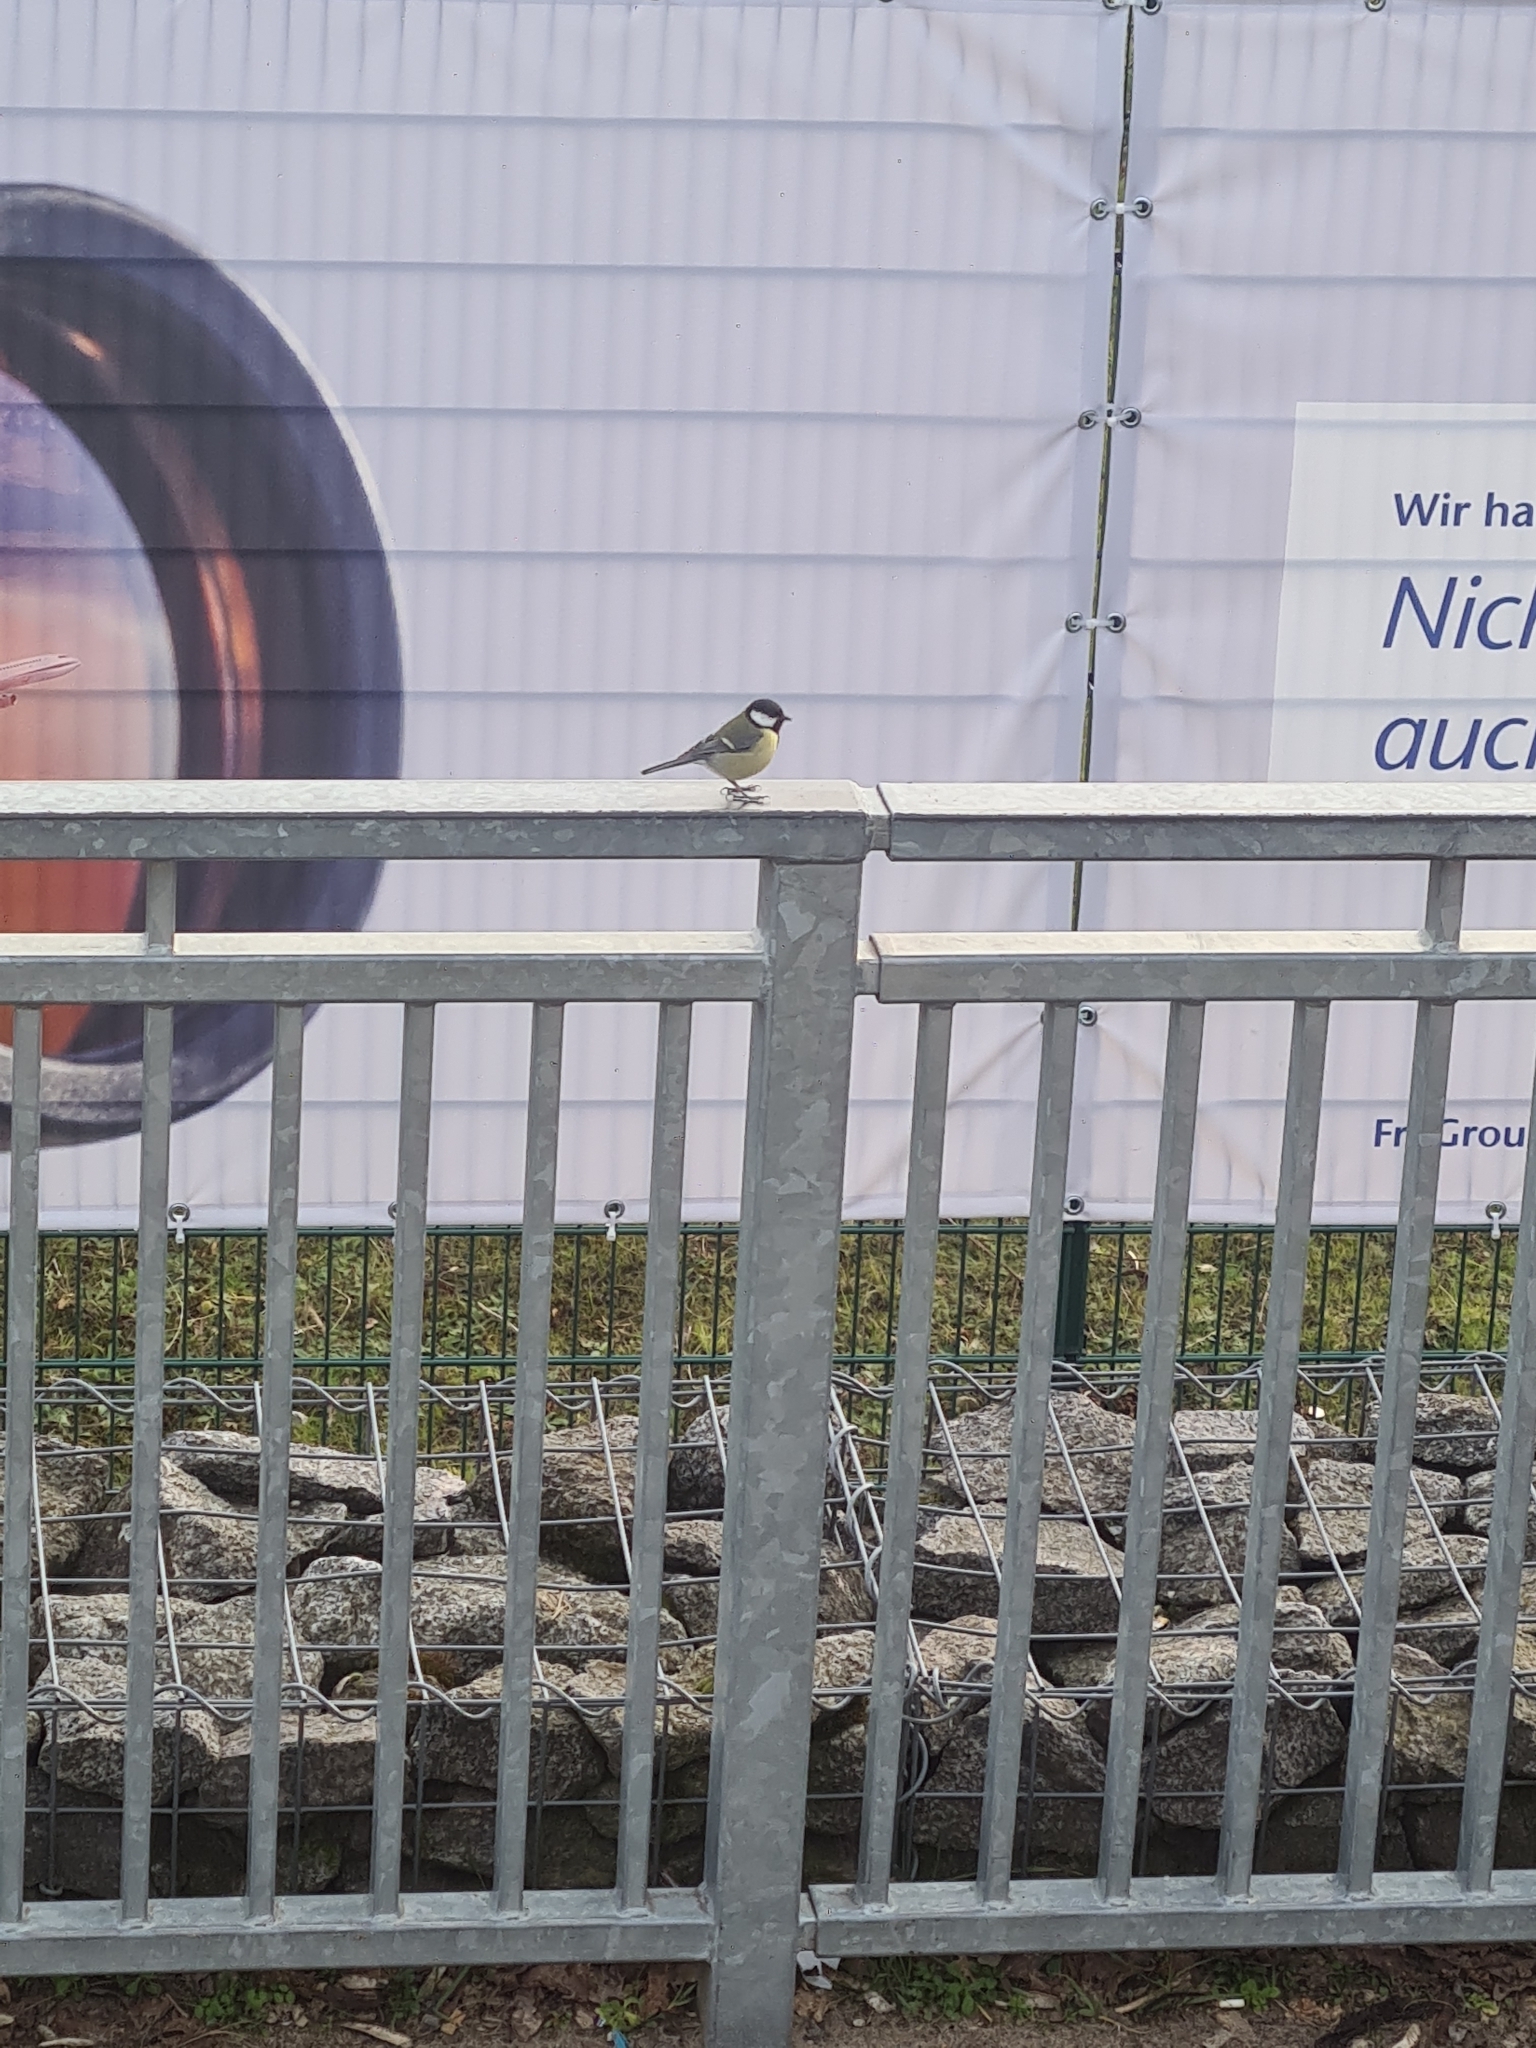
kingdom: Animalia
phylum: Chordata
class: Aves
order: Passeriformes
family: Paridae
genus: Parus
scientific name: Parus major
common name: Great tit
